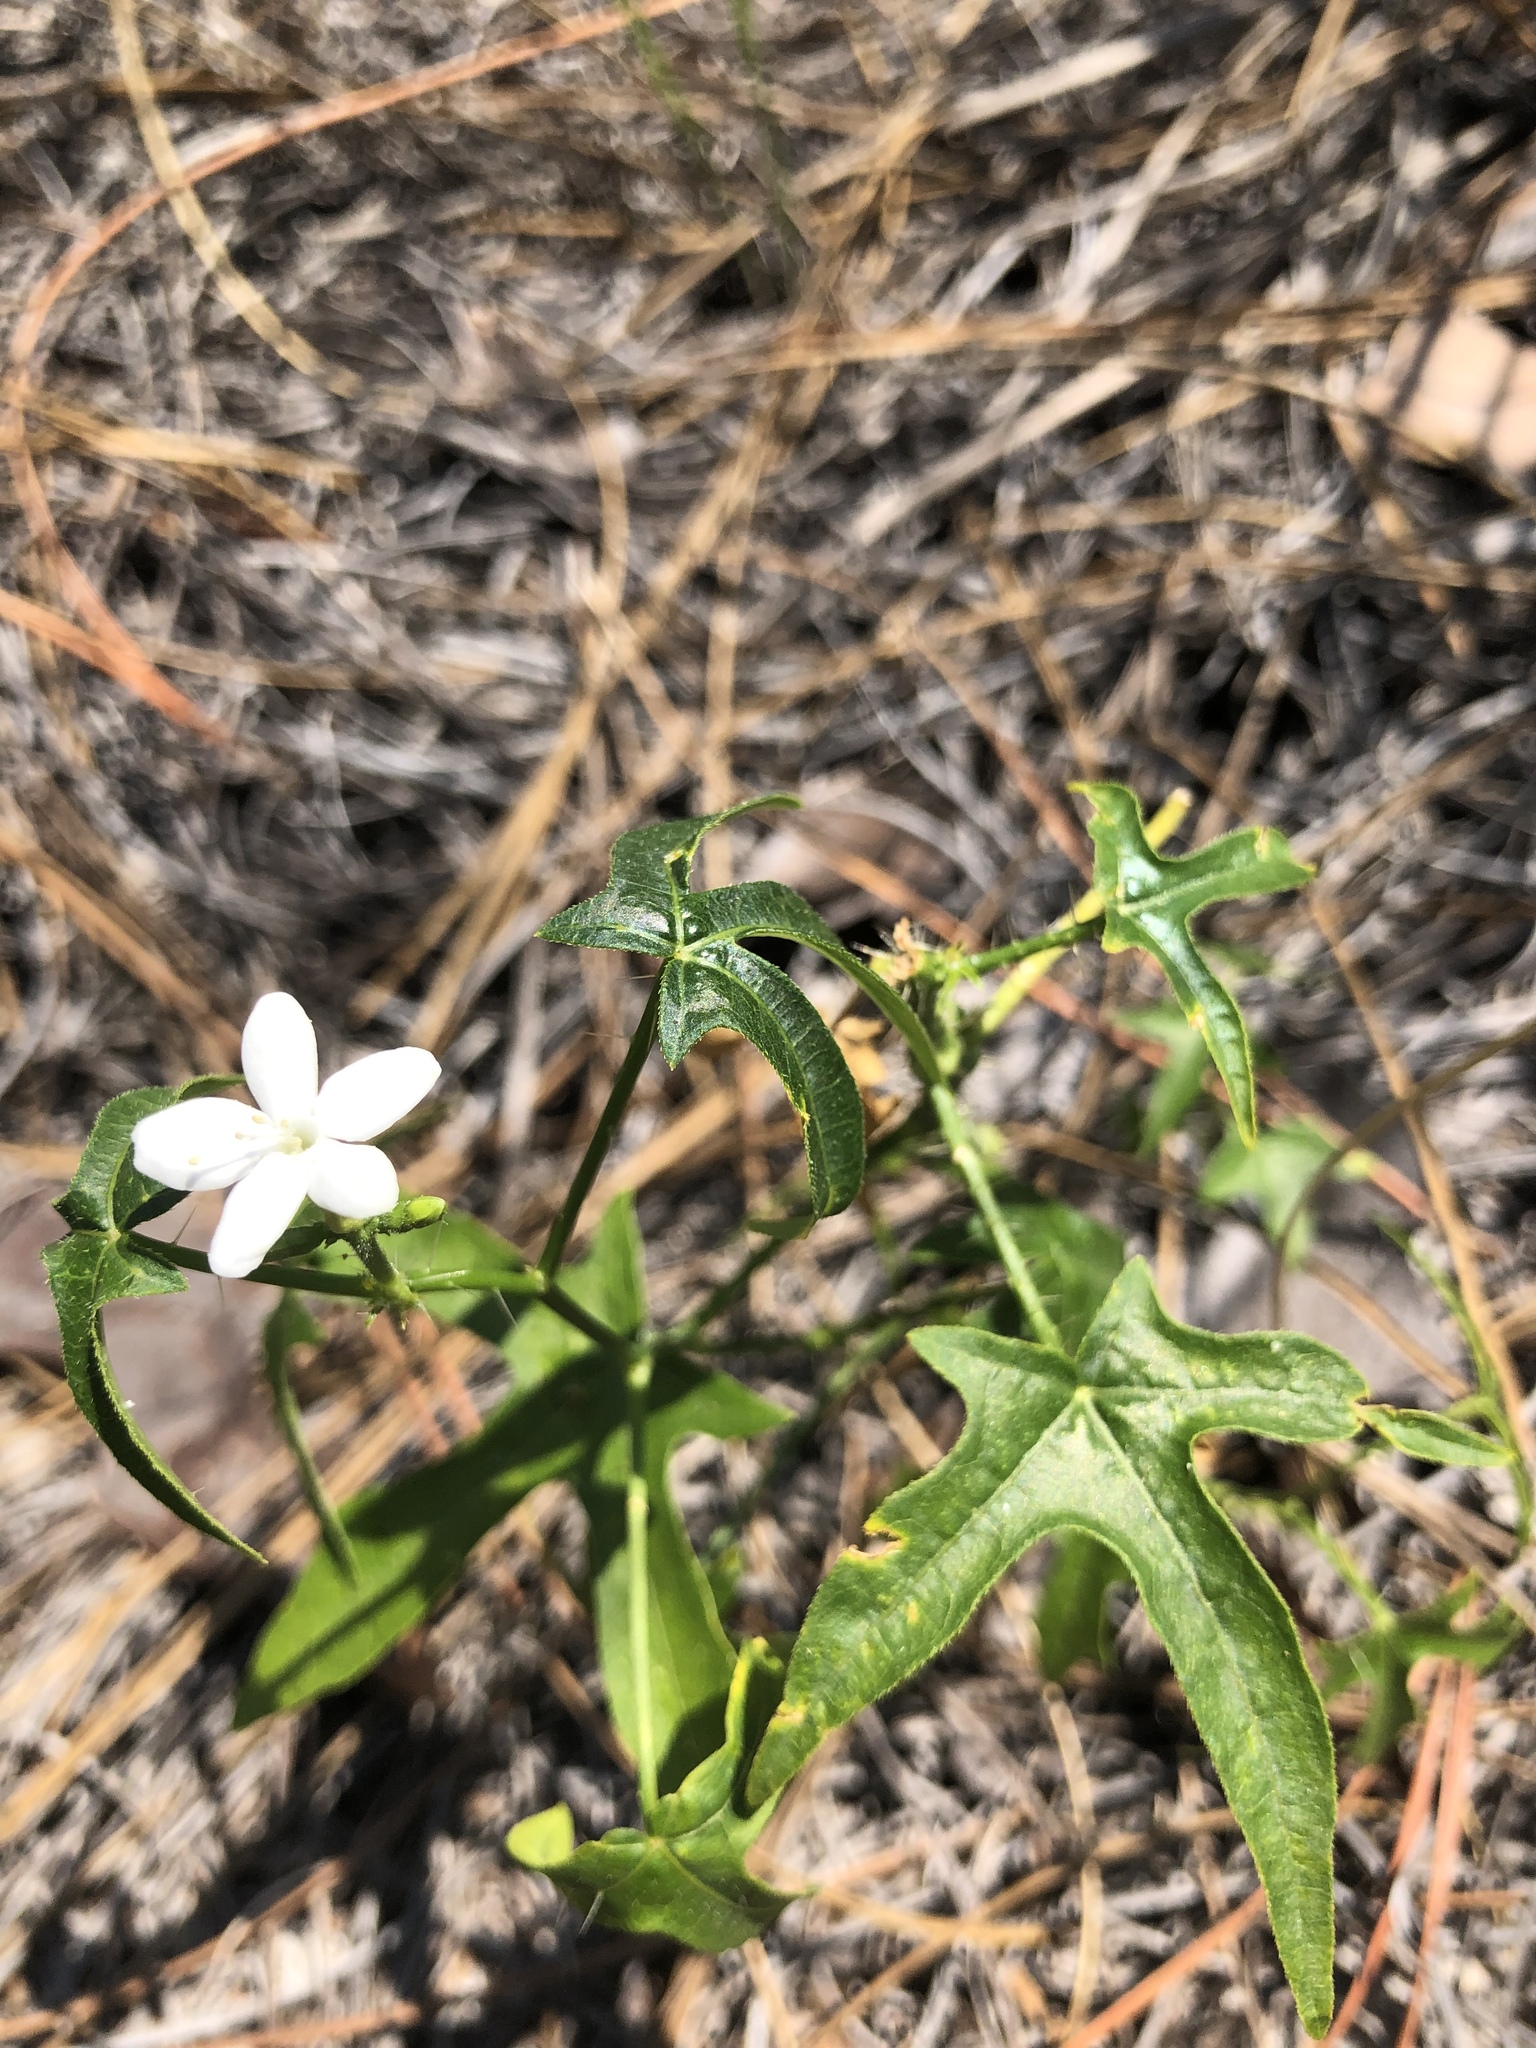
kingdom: Plantae
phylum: Tracheophyta
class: Magnoliopsida
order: Malpighiales
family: Euphorbiaceae
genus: Cnidoscolus
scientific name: Cnidoscolus stimulosus
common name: Bull-nettle
